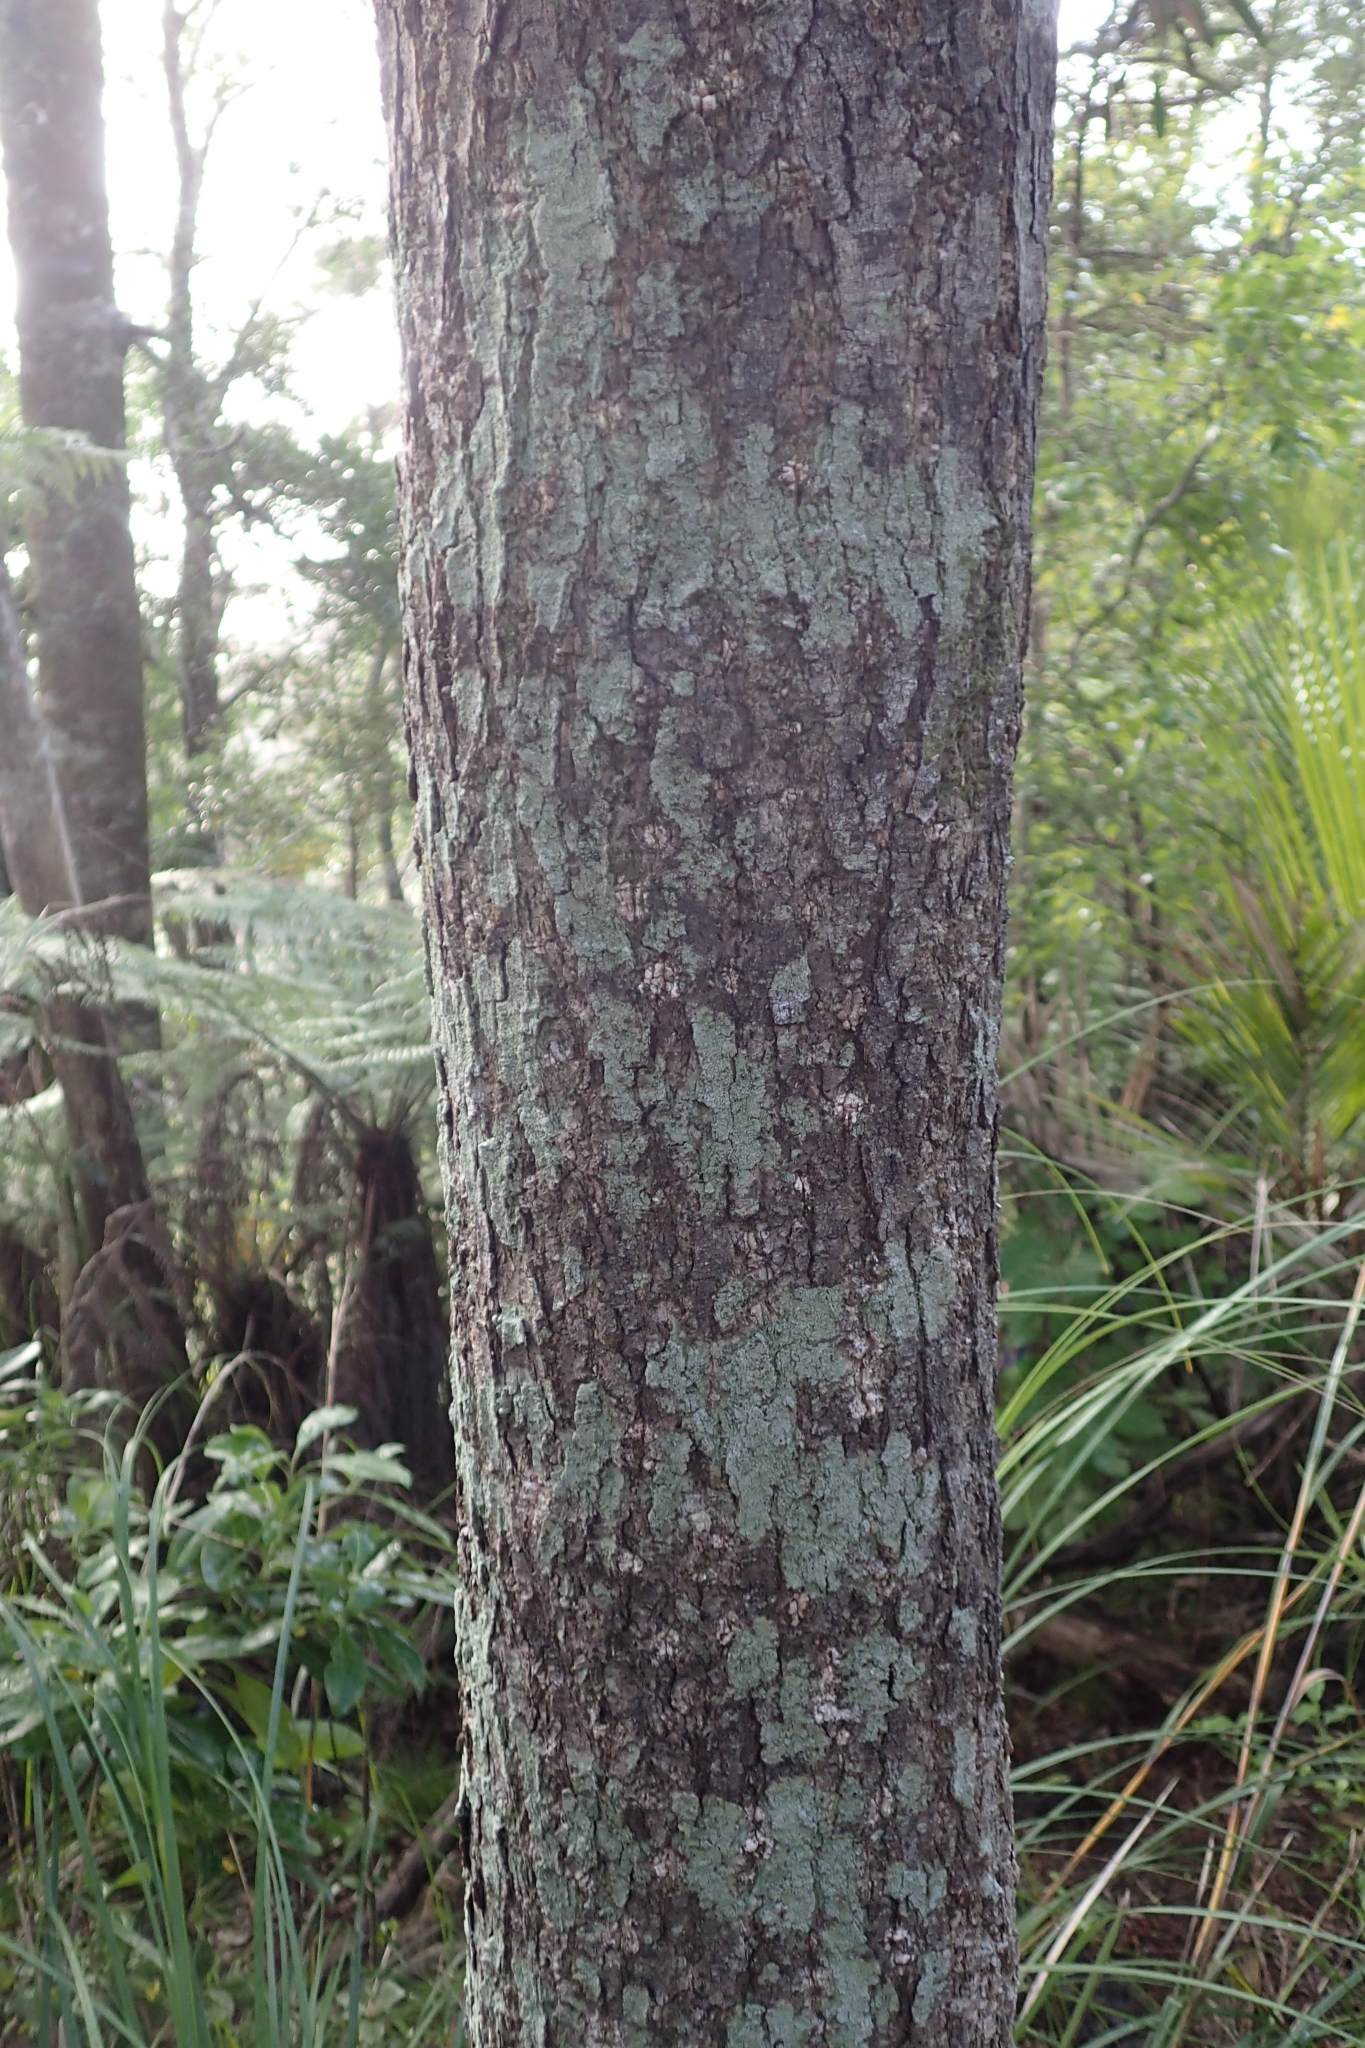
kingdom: Plantae
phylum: Tracheophyta
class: Magnoliopsida
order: Santalales
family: Nanodeaceae
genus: Mida
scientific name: Mida salicifolia
